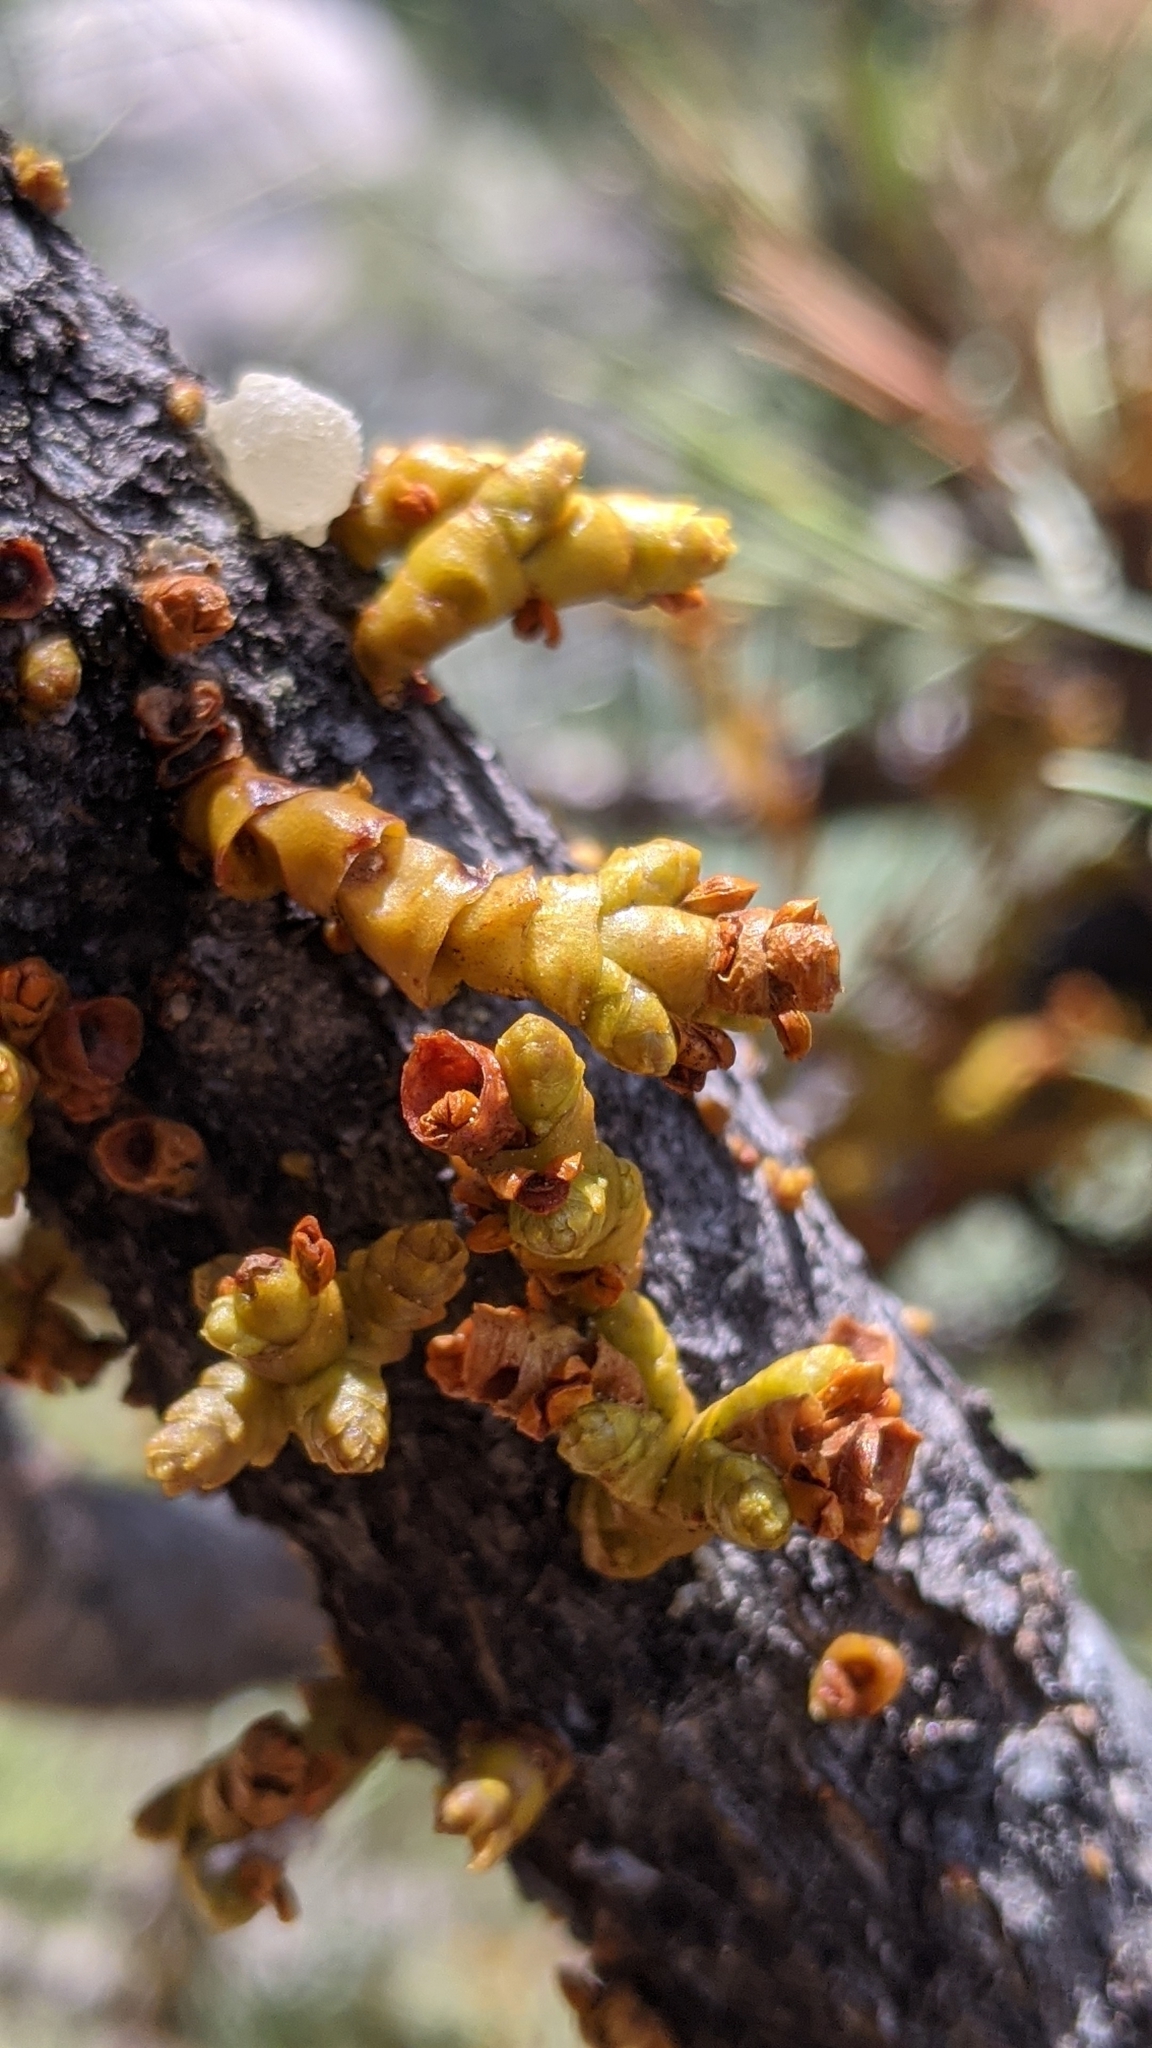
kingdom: Plantae
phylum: Tracheophyta
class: Magnoliopsida
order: Santalales
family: Viscaceae
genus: Arceuthobium
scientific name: Arceuthobium campylopodum
